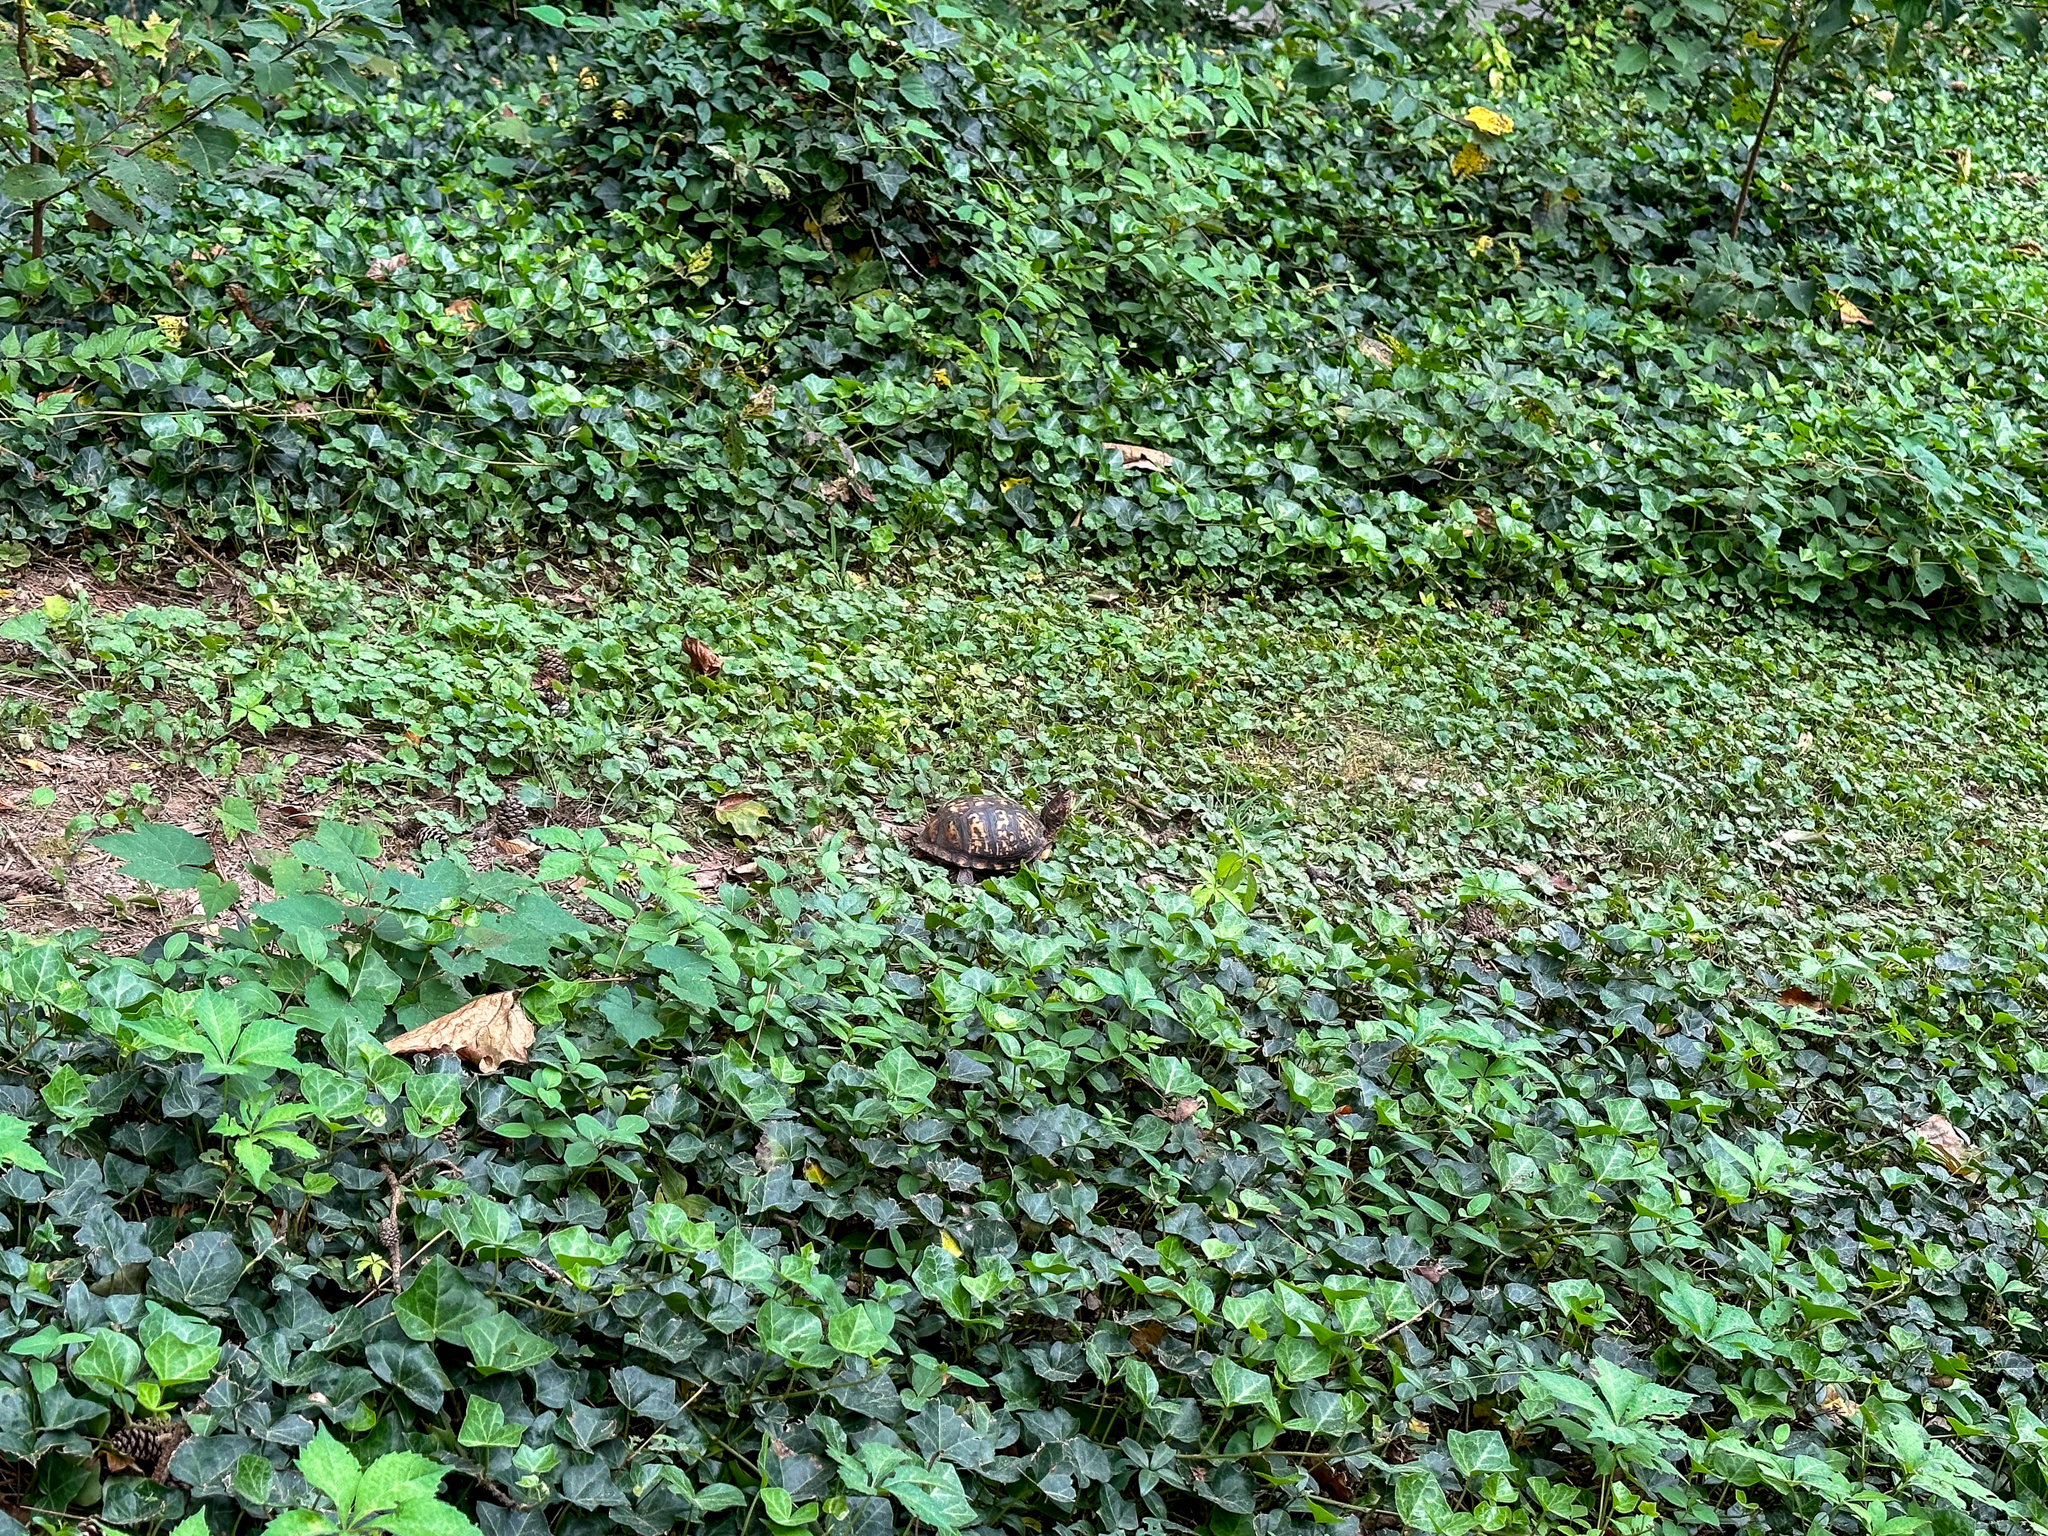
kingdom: Animalia
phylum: Chordata
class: Testudines
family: Emydidae
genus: Terrapene
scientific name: Terrapene carolina
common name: Common box turtle
